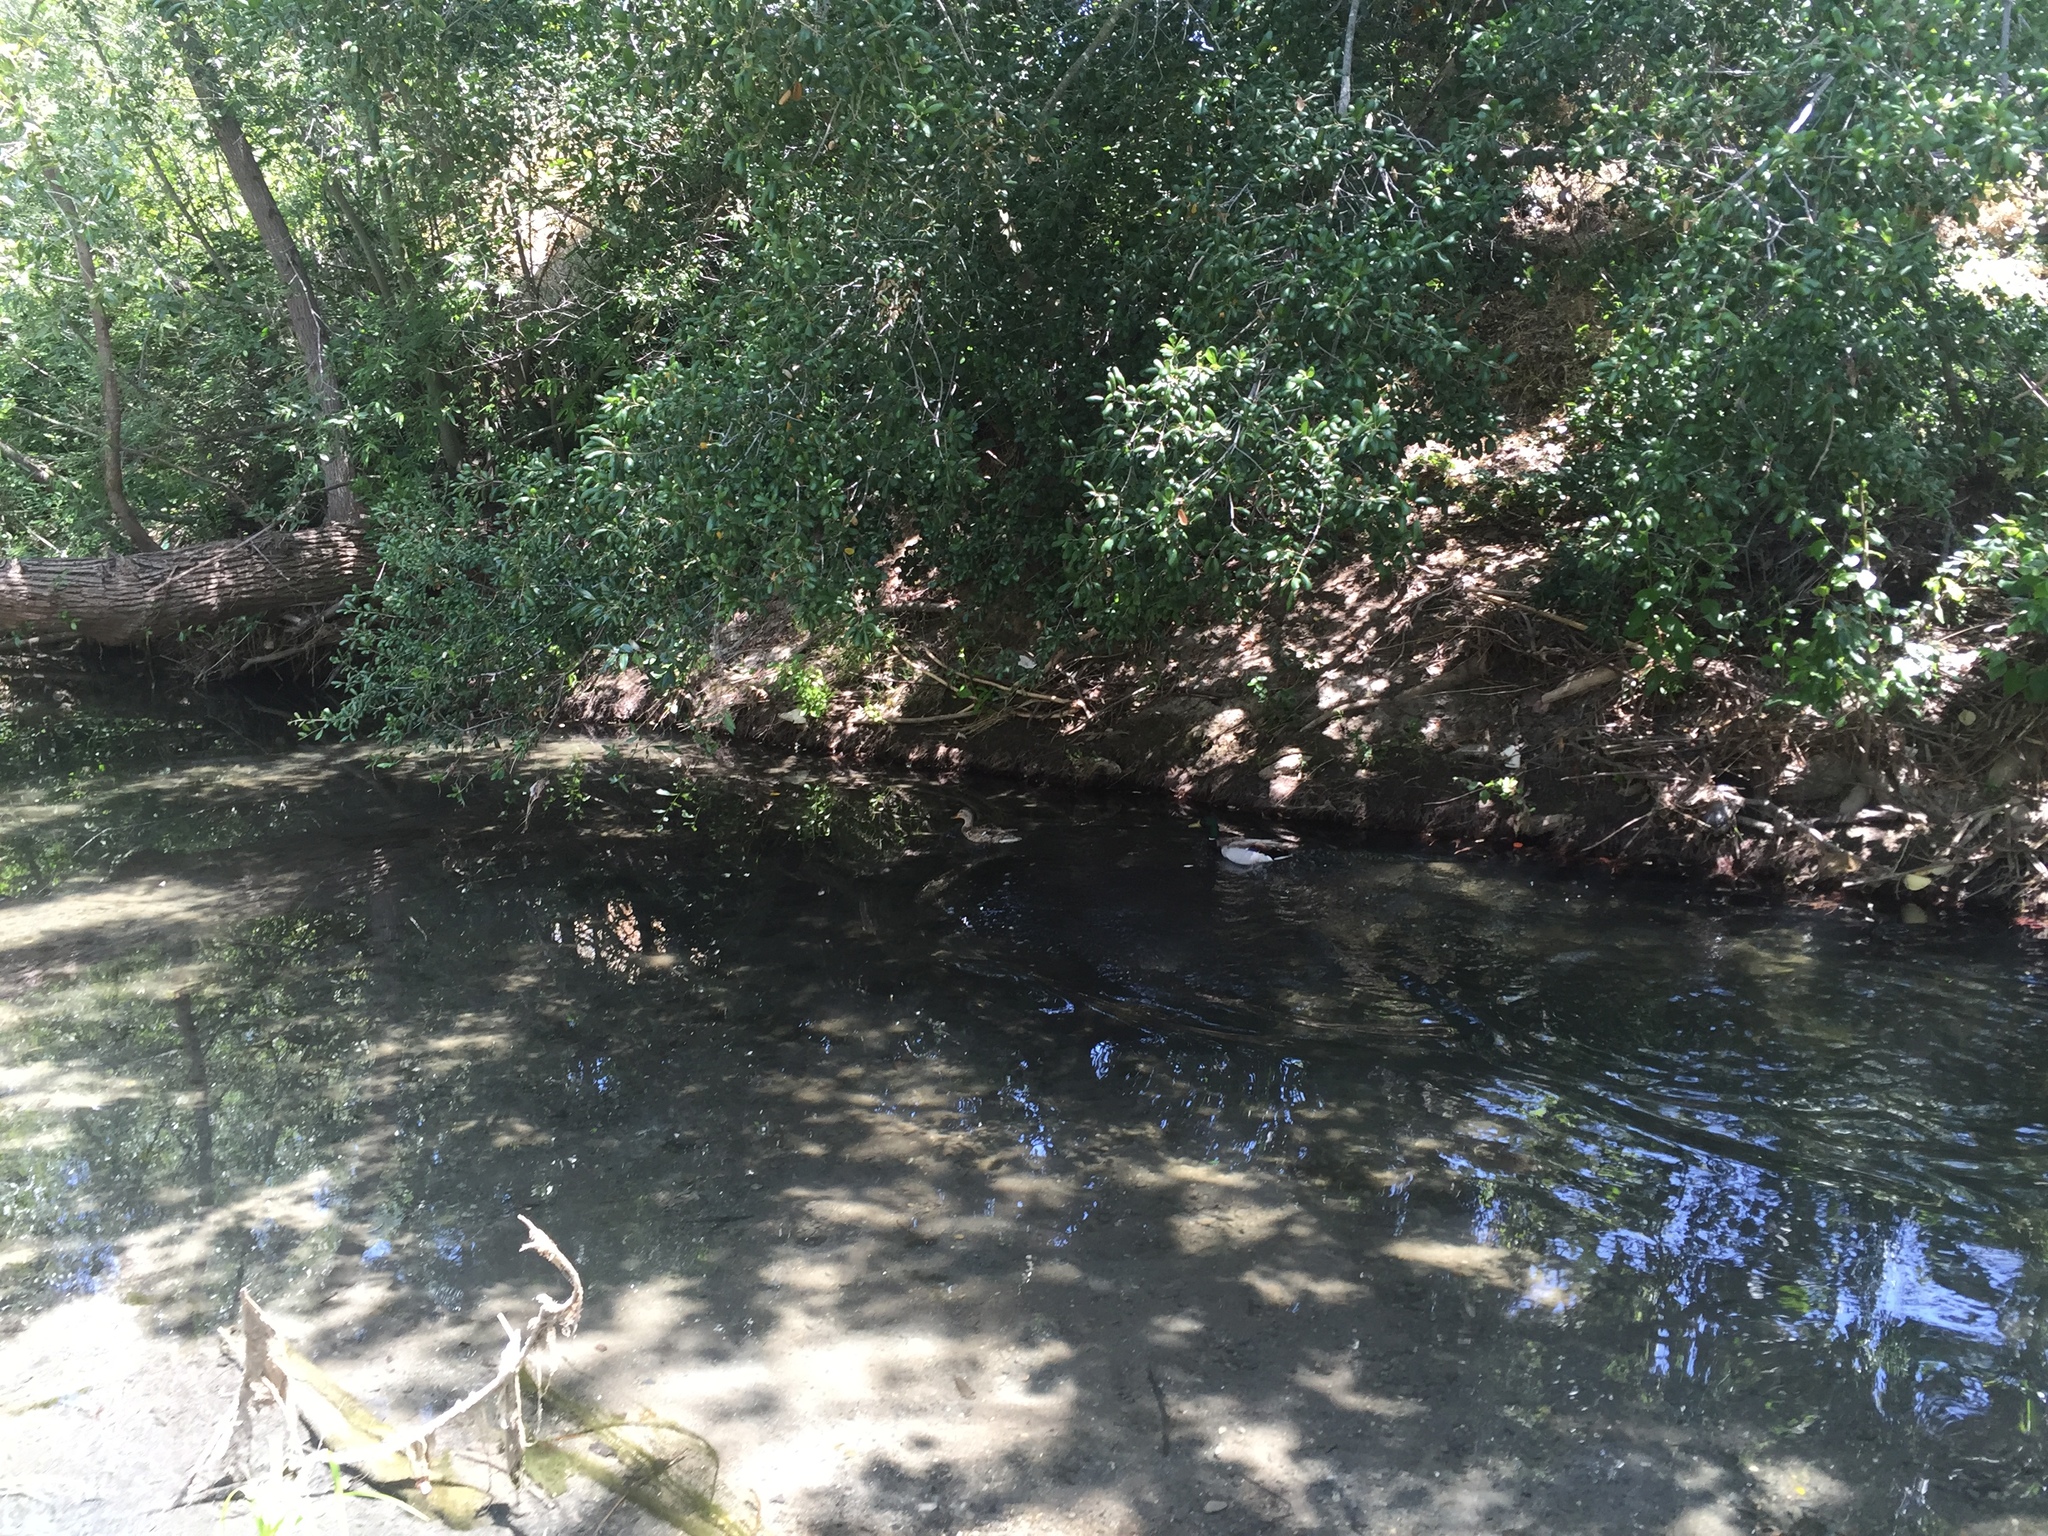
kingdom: Animalia
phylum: Chordata
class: Aves
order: Anseriformes
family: Anatidae
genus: Anas
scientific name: Anas platyrhynchos
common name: Mallard
